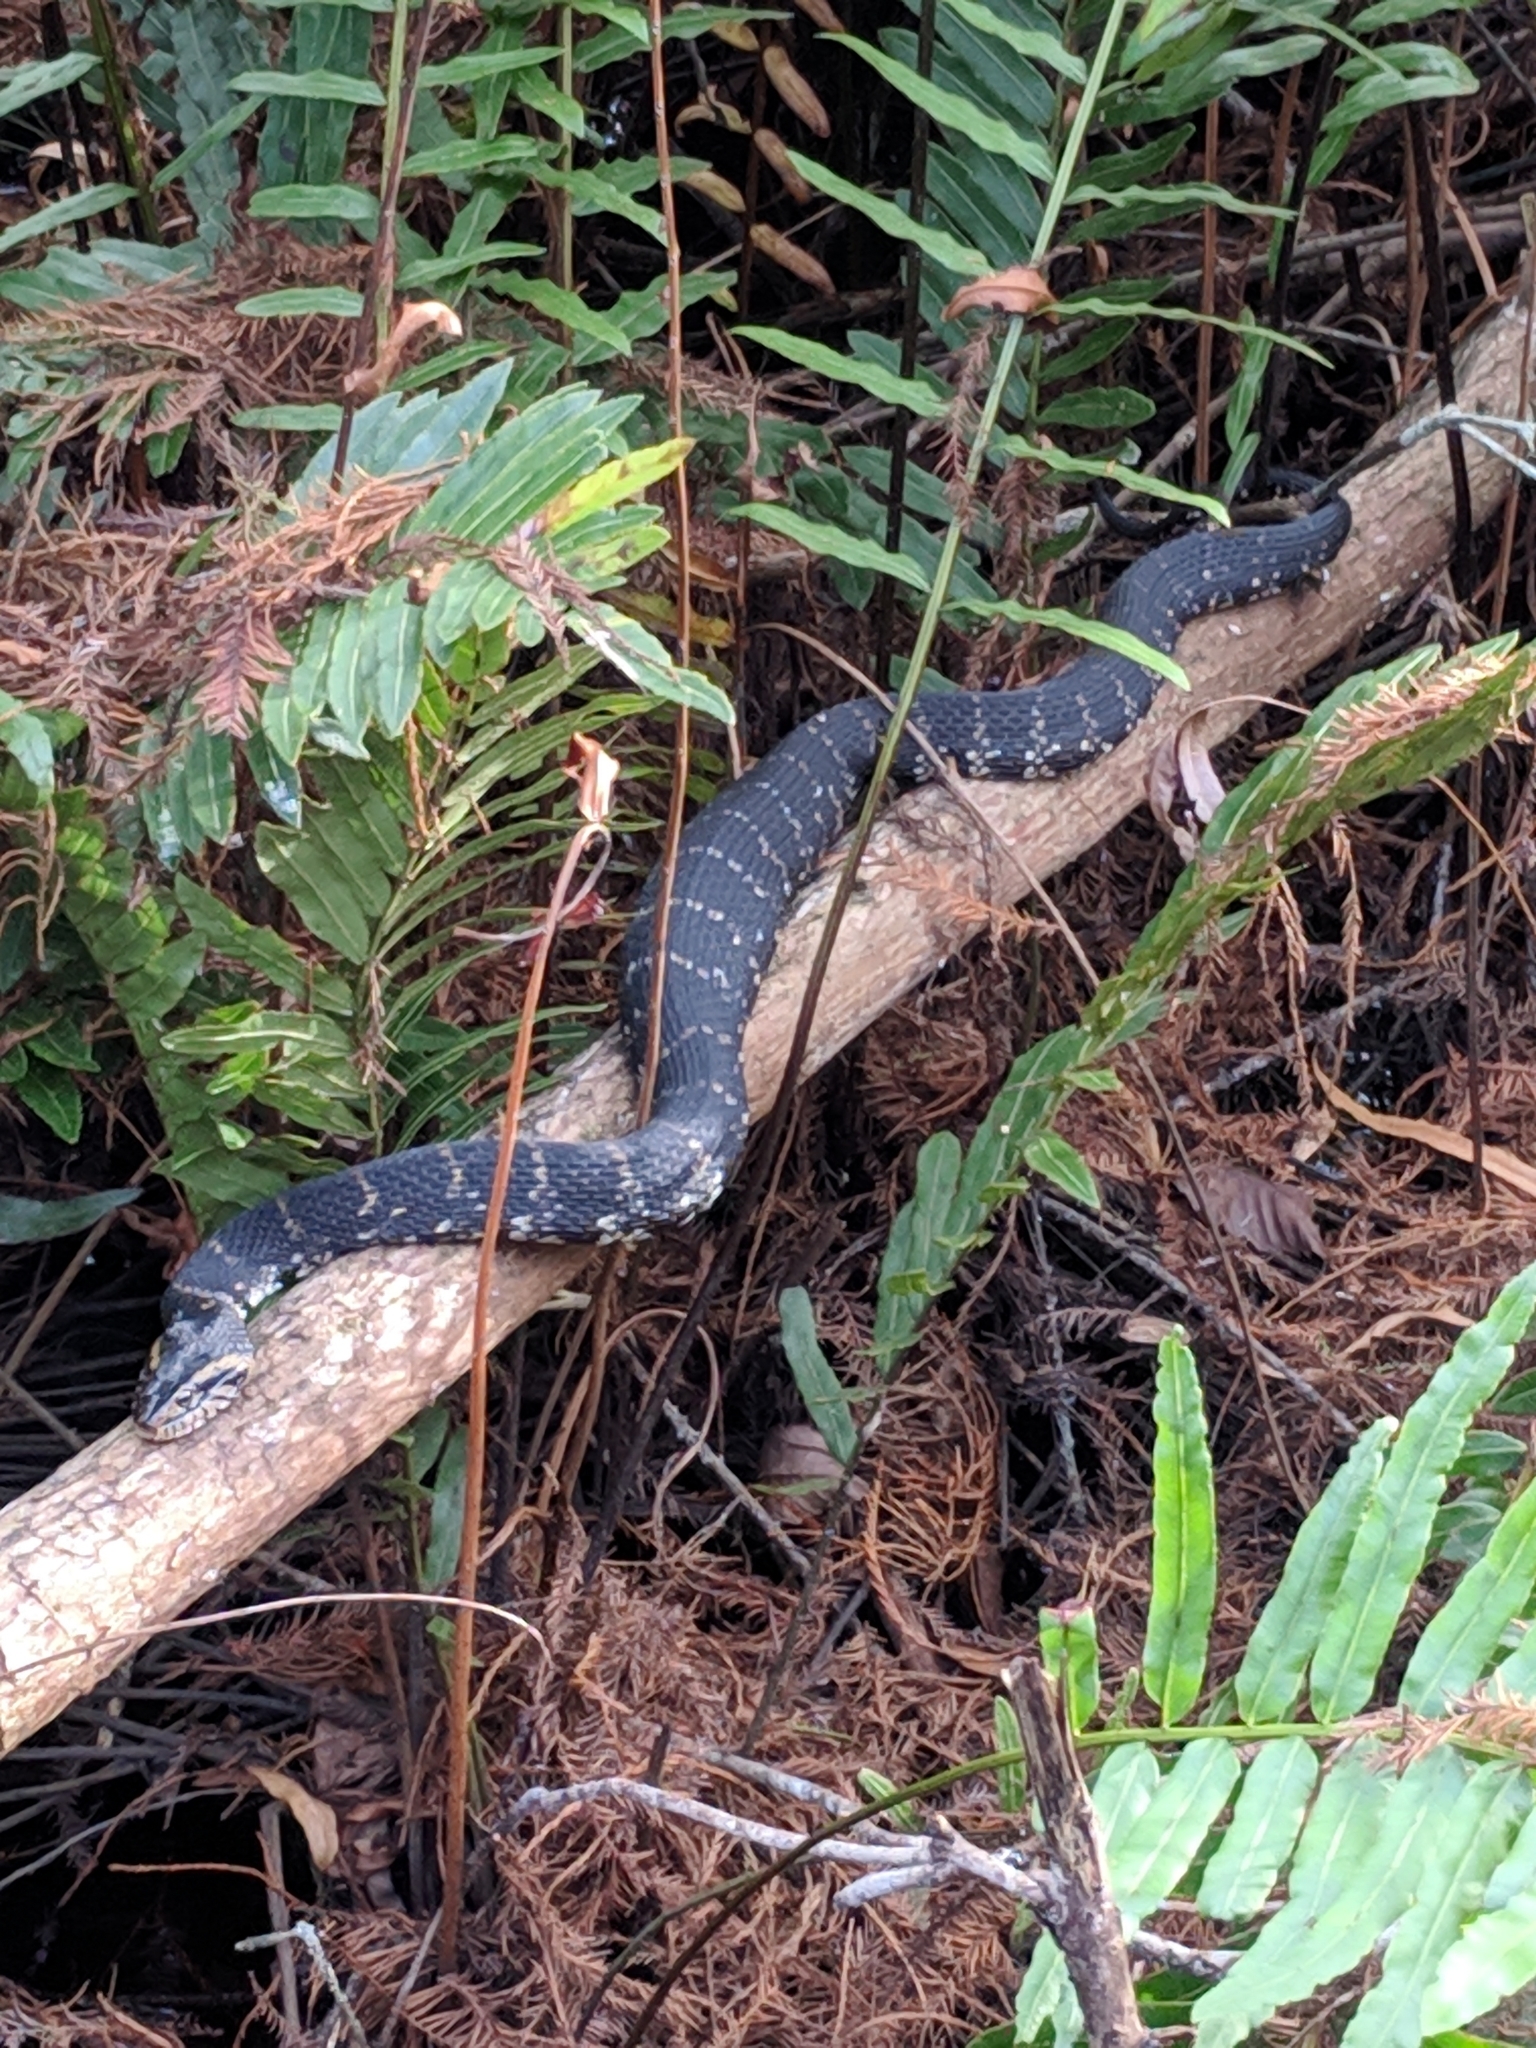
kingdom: Animalia
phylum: Chordata
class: Squamata
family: Colubridae
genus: Nerodia
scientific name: Nerodia fasciata
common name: Southern water snake
